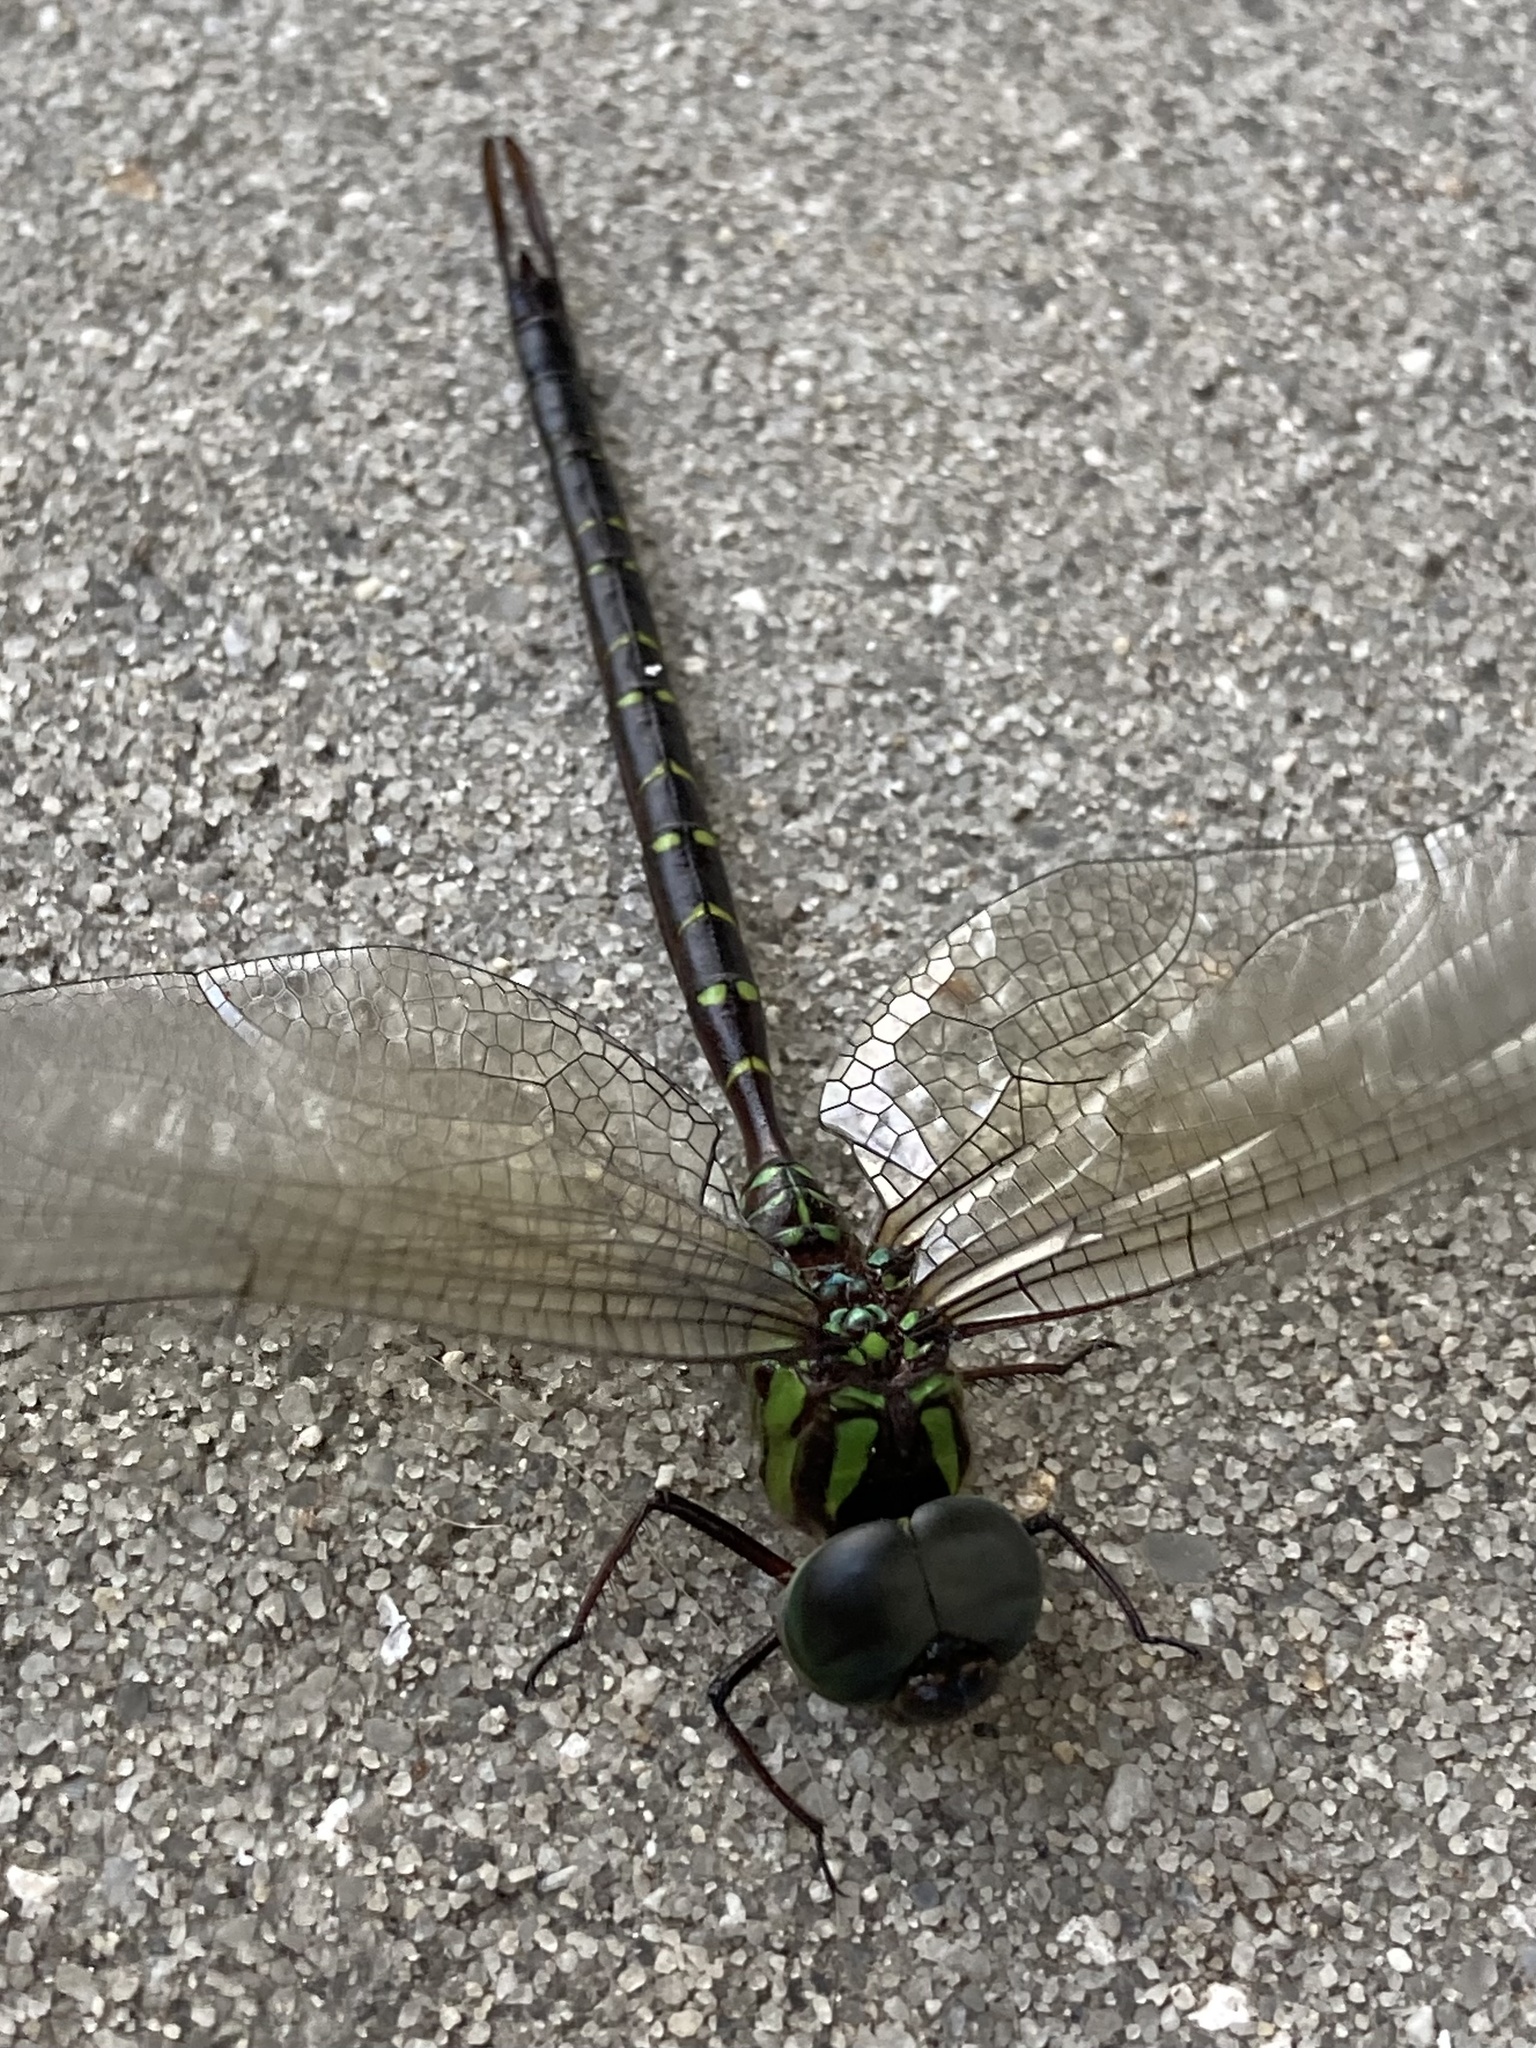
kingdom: Animalia
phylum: Arthropoda
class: Insecta
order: Odonata
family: Aeshnidae
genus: Triacanthagyna
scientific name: Triacanthagyna trifida
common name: Phantom darner
